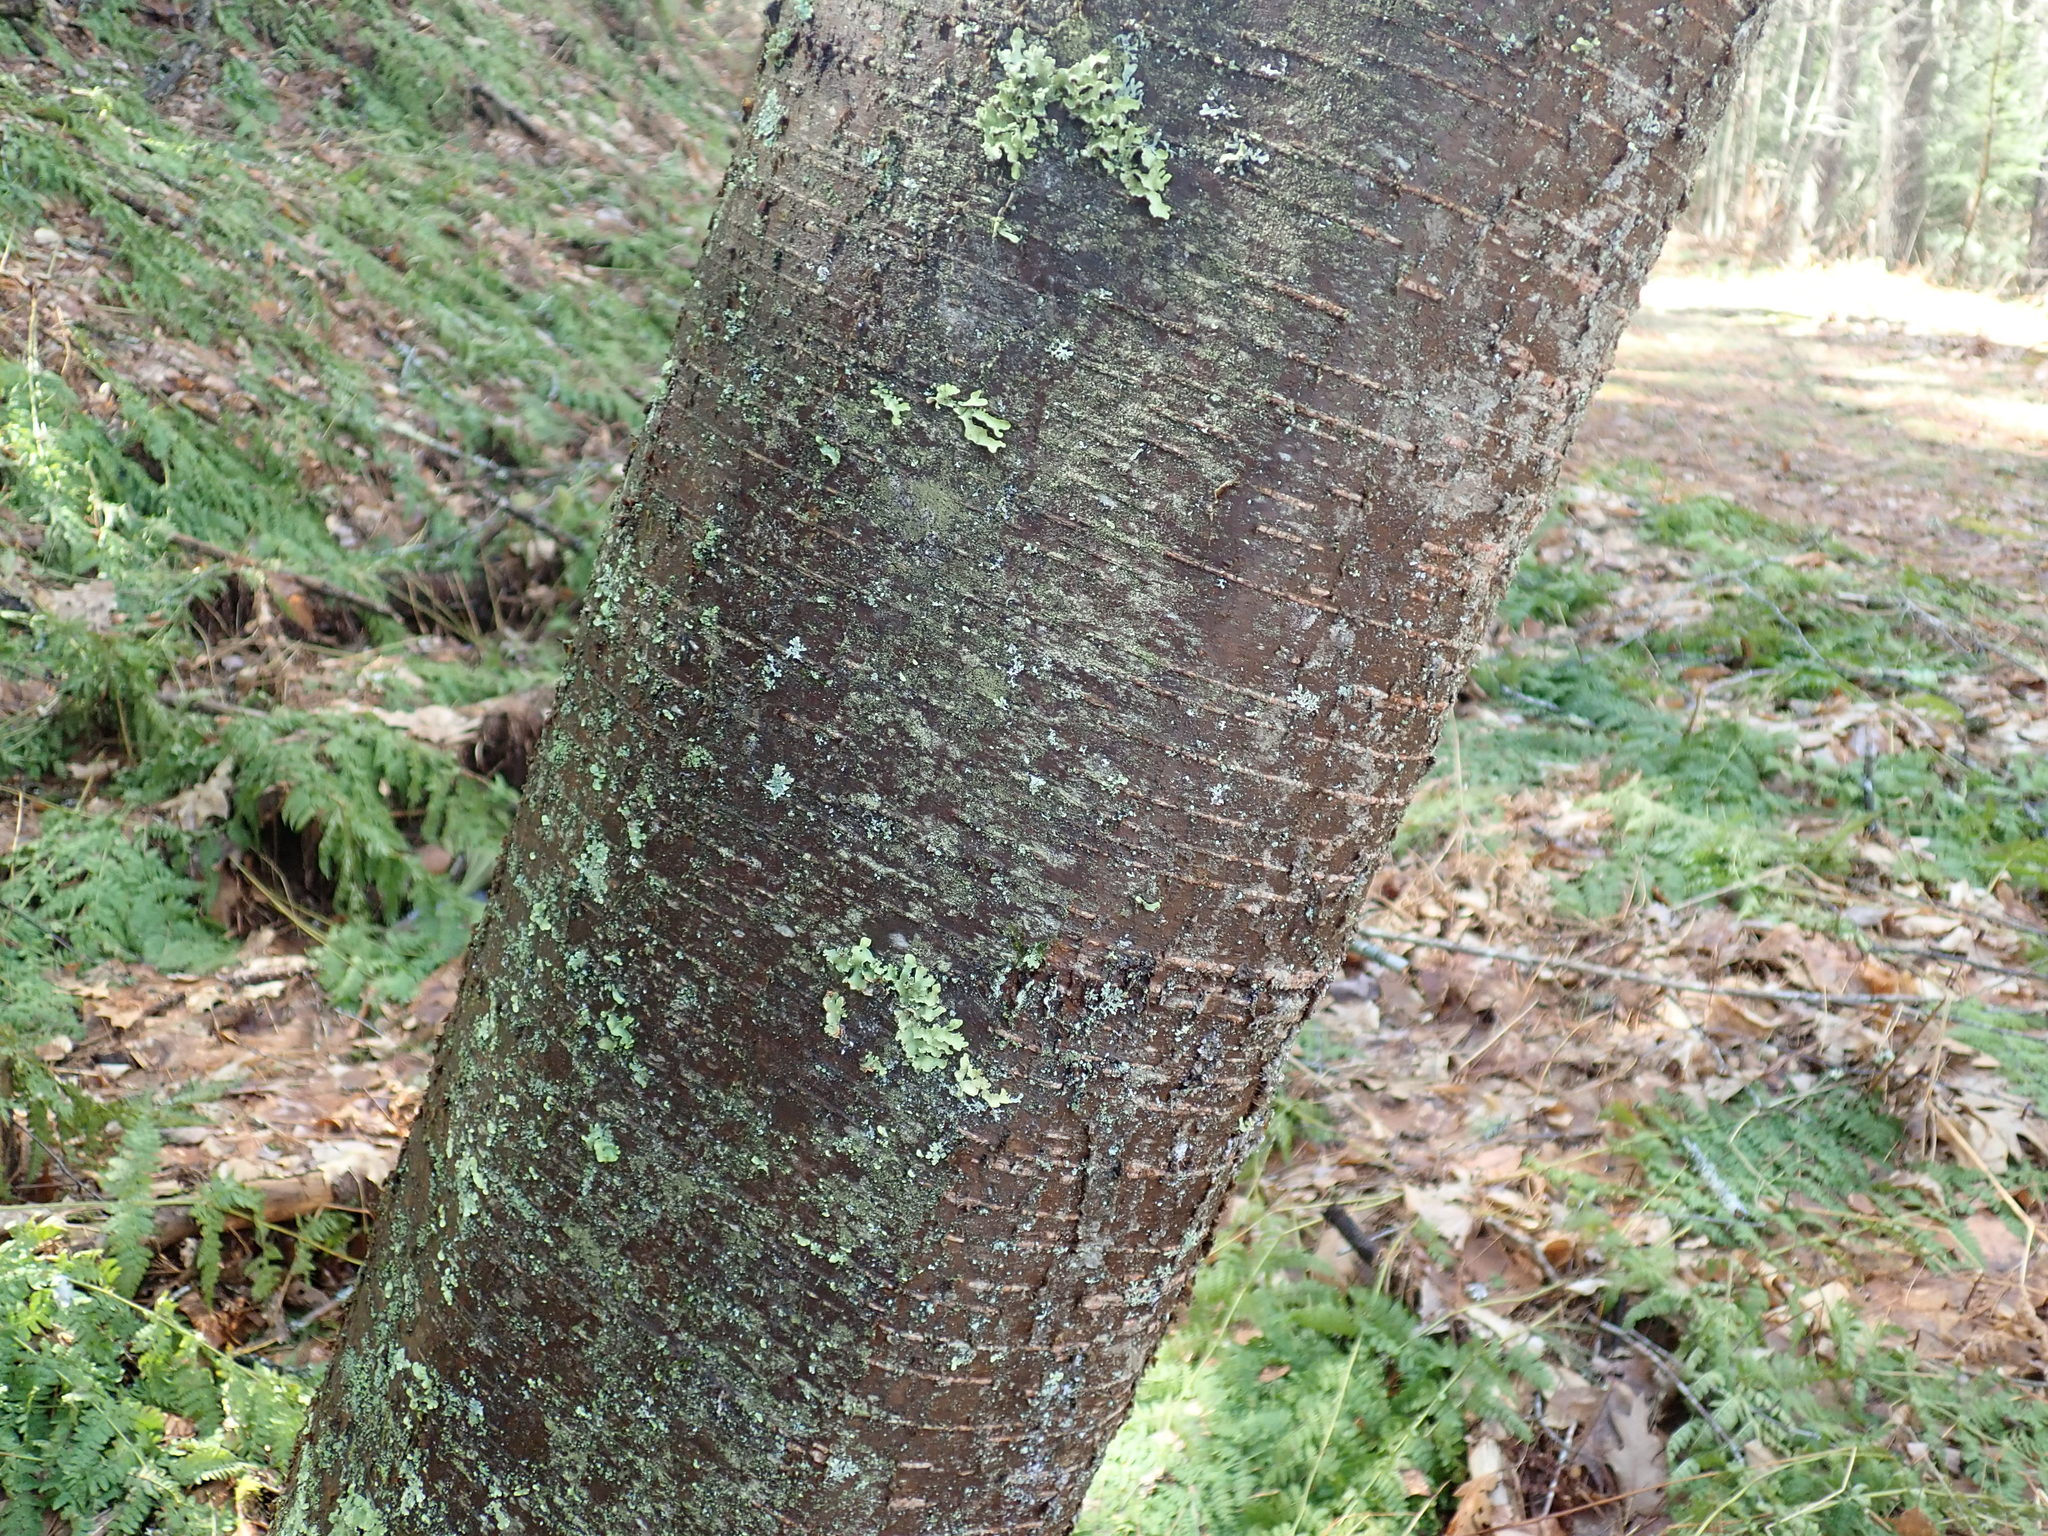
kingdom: Plantae
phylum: Tracheophyta
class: Magnoliopsida
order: Fagales
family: Betulaceae
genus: Betula
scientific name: Betula lenta
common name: Black birch
